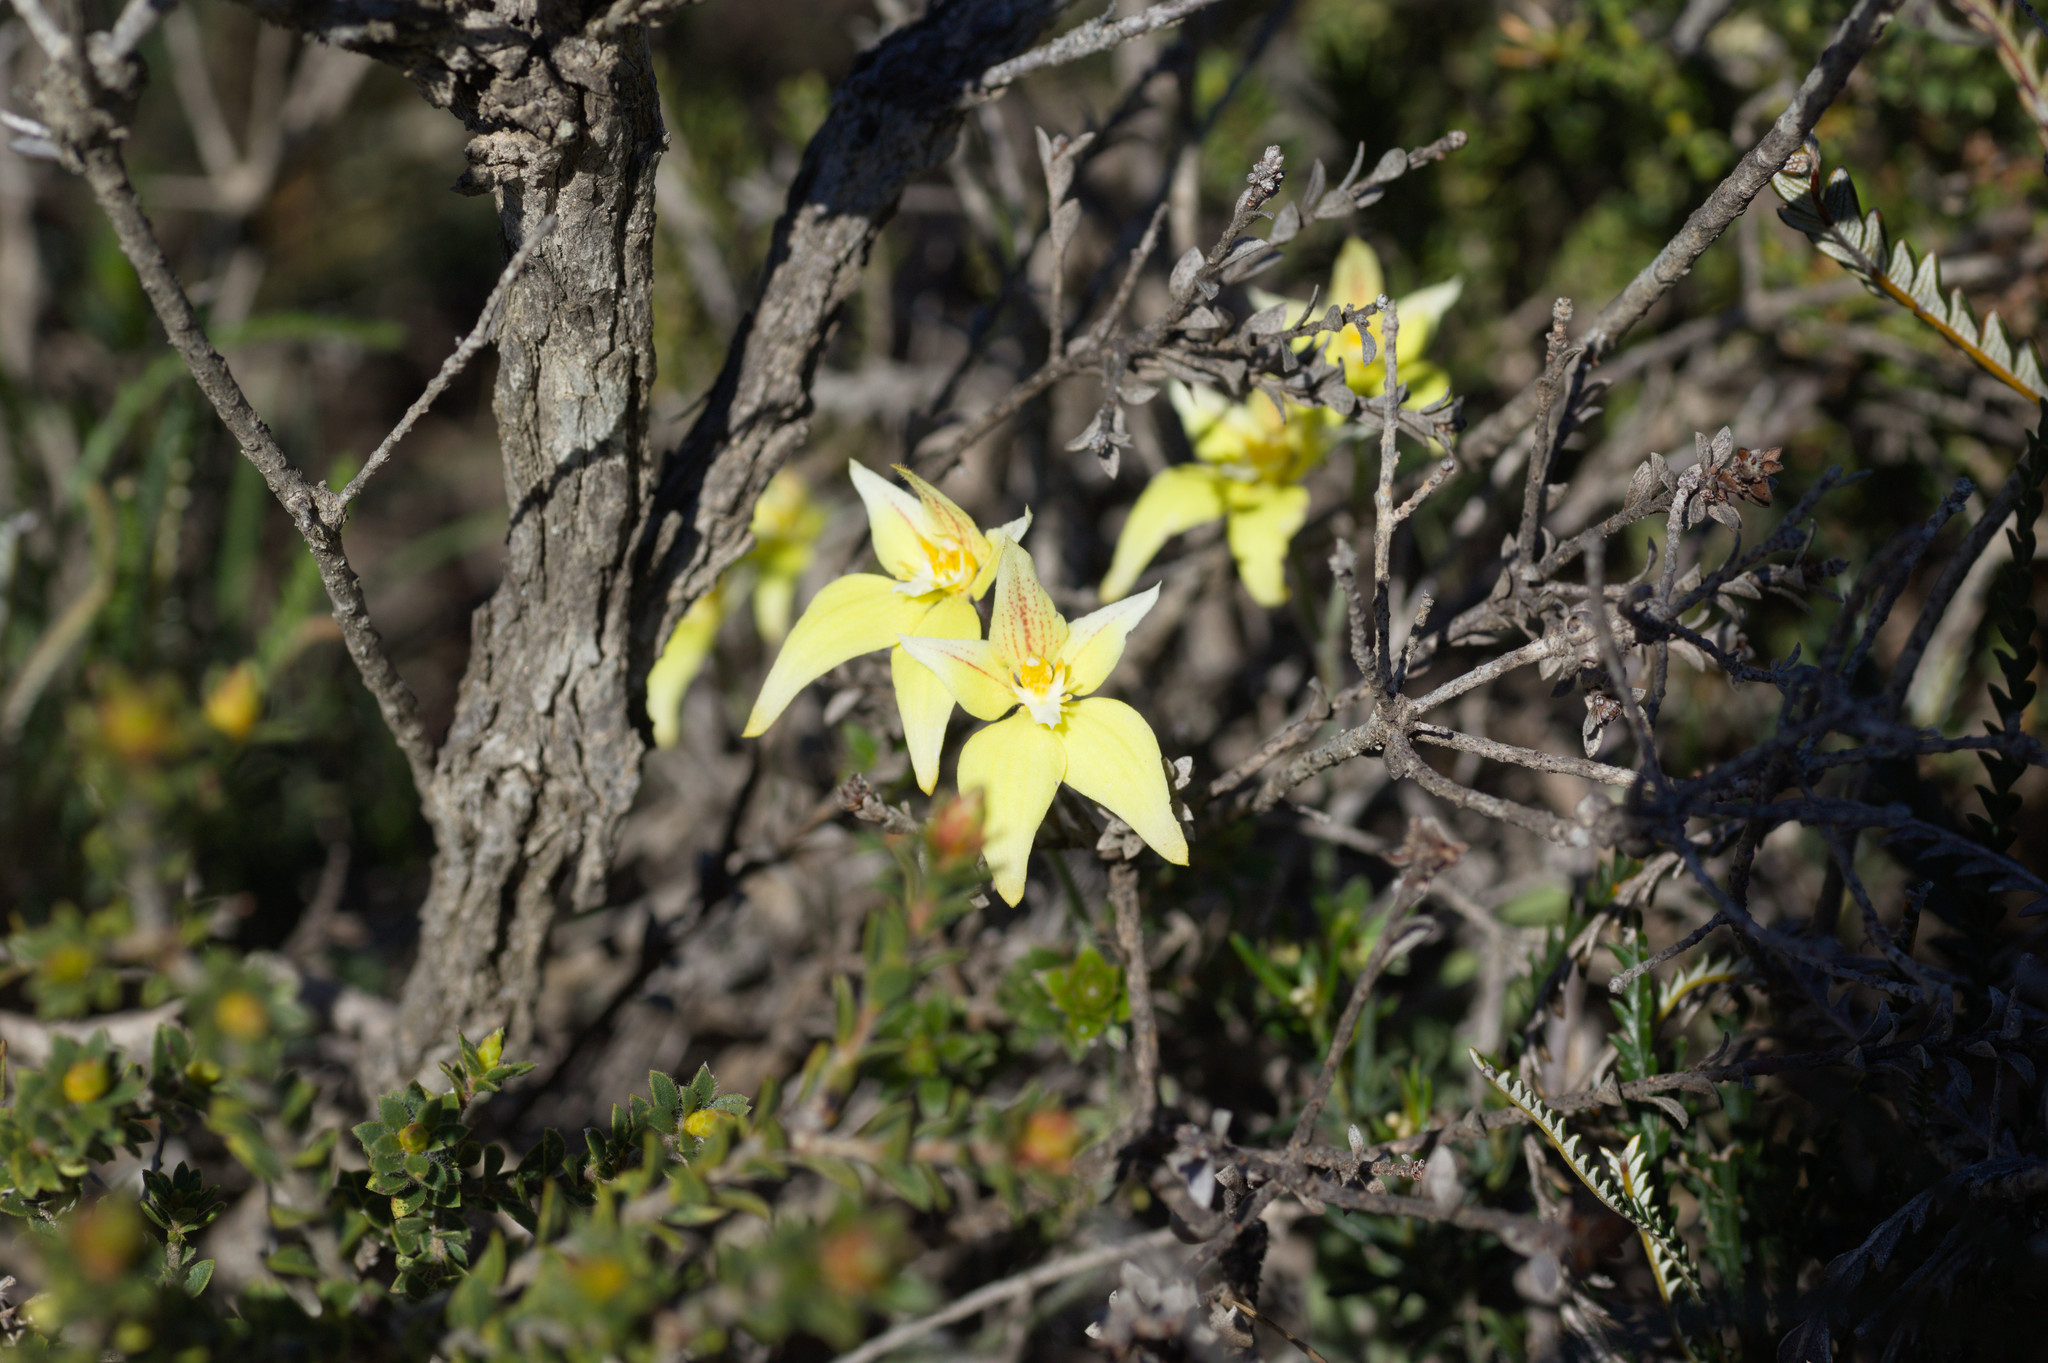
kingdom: Plantae
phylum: Tracheophyta
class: Liliopsida
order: Asparagales
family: Orchidaceae
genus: Caladenia
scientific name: Caladenia flava
